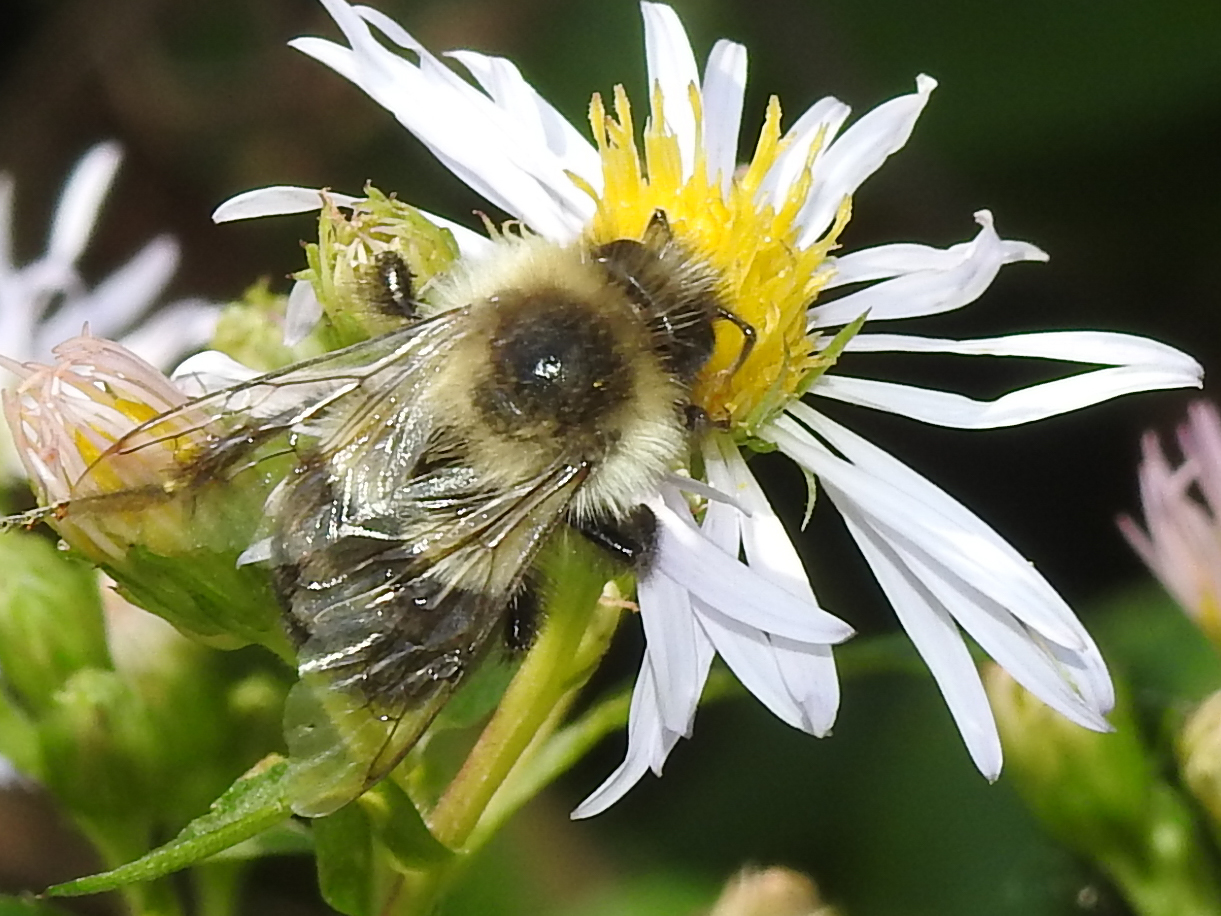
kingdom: Animalia
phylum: Arthropoda
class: Insecta
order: Hymenoptera
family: Apidae
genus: Bombus
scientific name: Bombus impatiens
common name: Common eastern bumble bee
